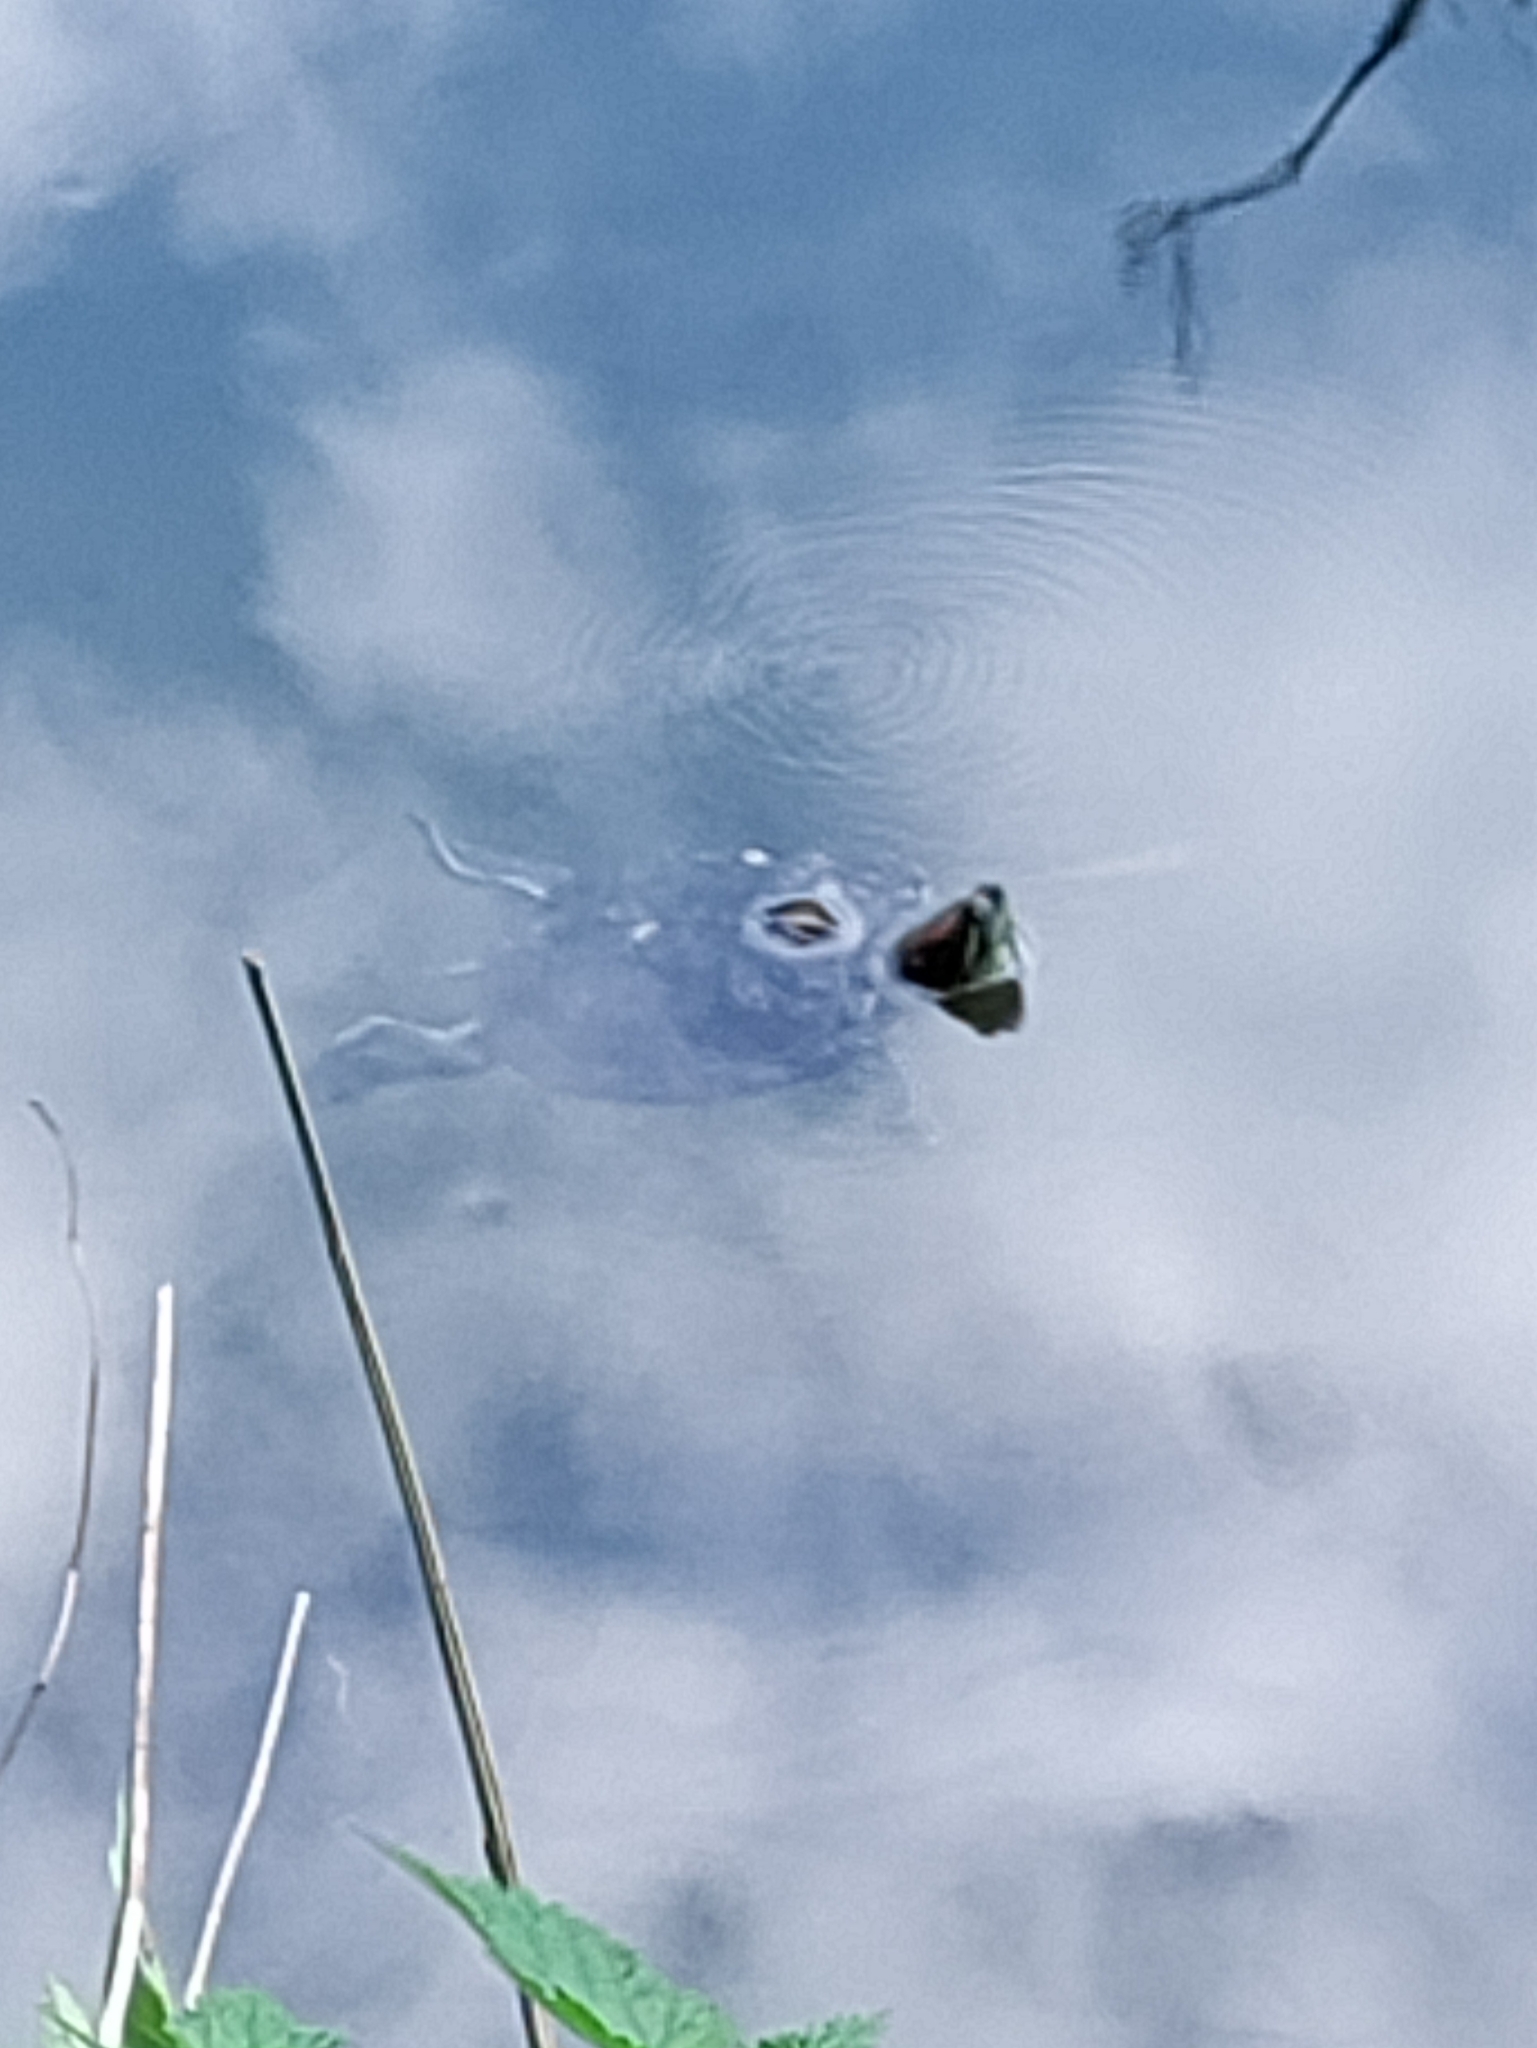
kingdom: Animalia
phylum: Chordata
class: Testudines
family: Emydidae
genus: Trachemys
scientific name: Trachemys scripta
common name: Slider
